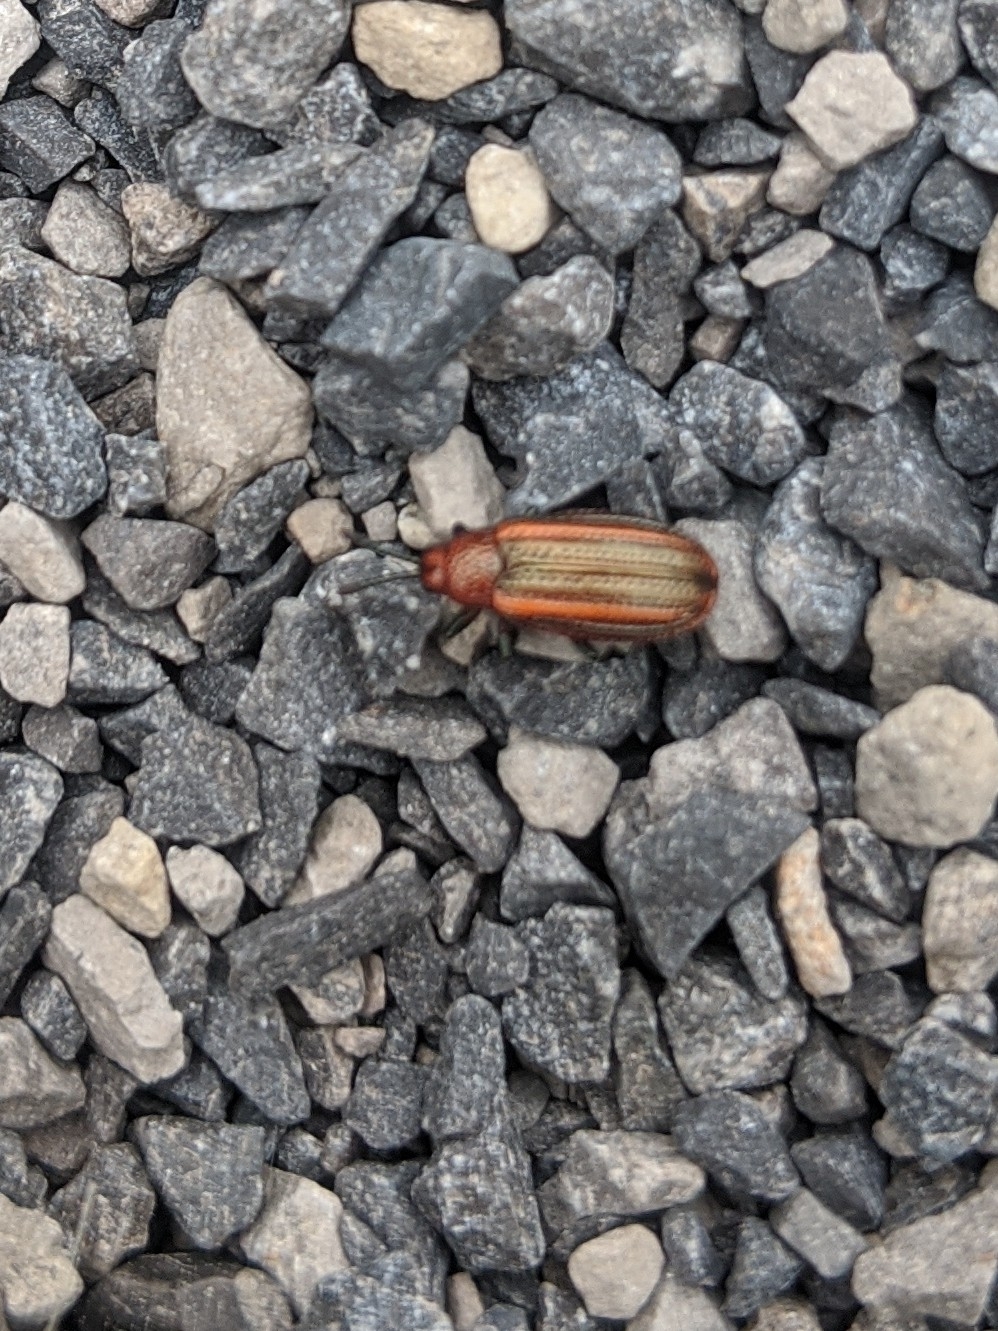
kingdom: Animalia
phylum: Arthropoda
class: Insecta
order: Coleoptera
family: Chrysomelidae
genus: Microrhopala
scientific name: Microrhopala vittata
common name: Goldenrod leaf miner beetle
